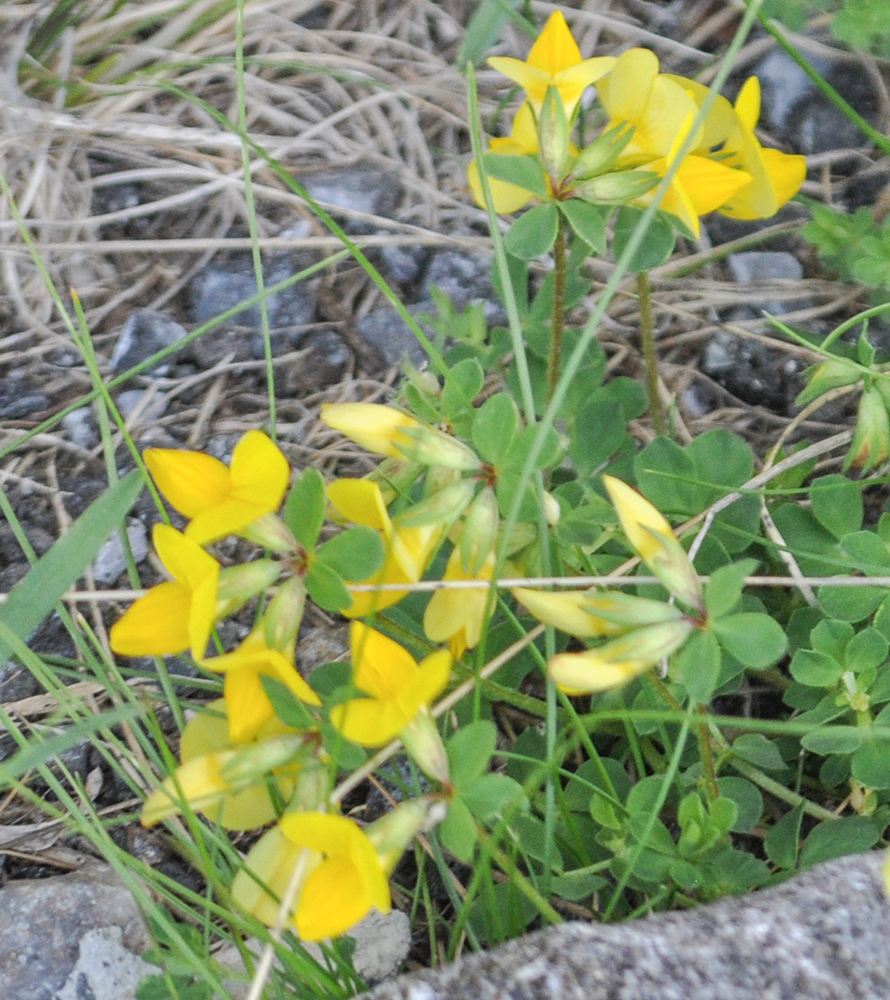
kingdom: Plantae
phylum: Tracheophyta
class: Magnoliopsida
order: Fabales
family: Fabaceae
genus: Lotus
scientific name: Lotus corniculatus
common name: Common bird's-foot-trefoil
